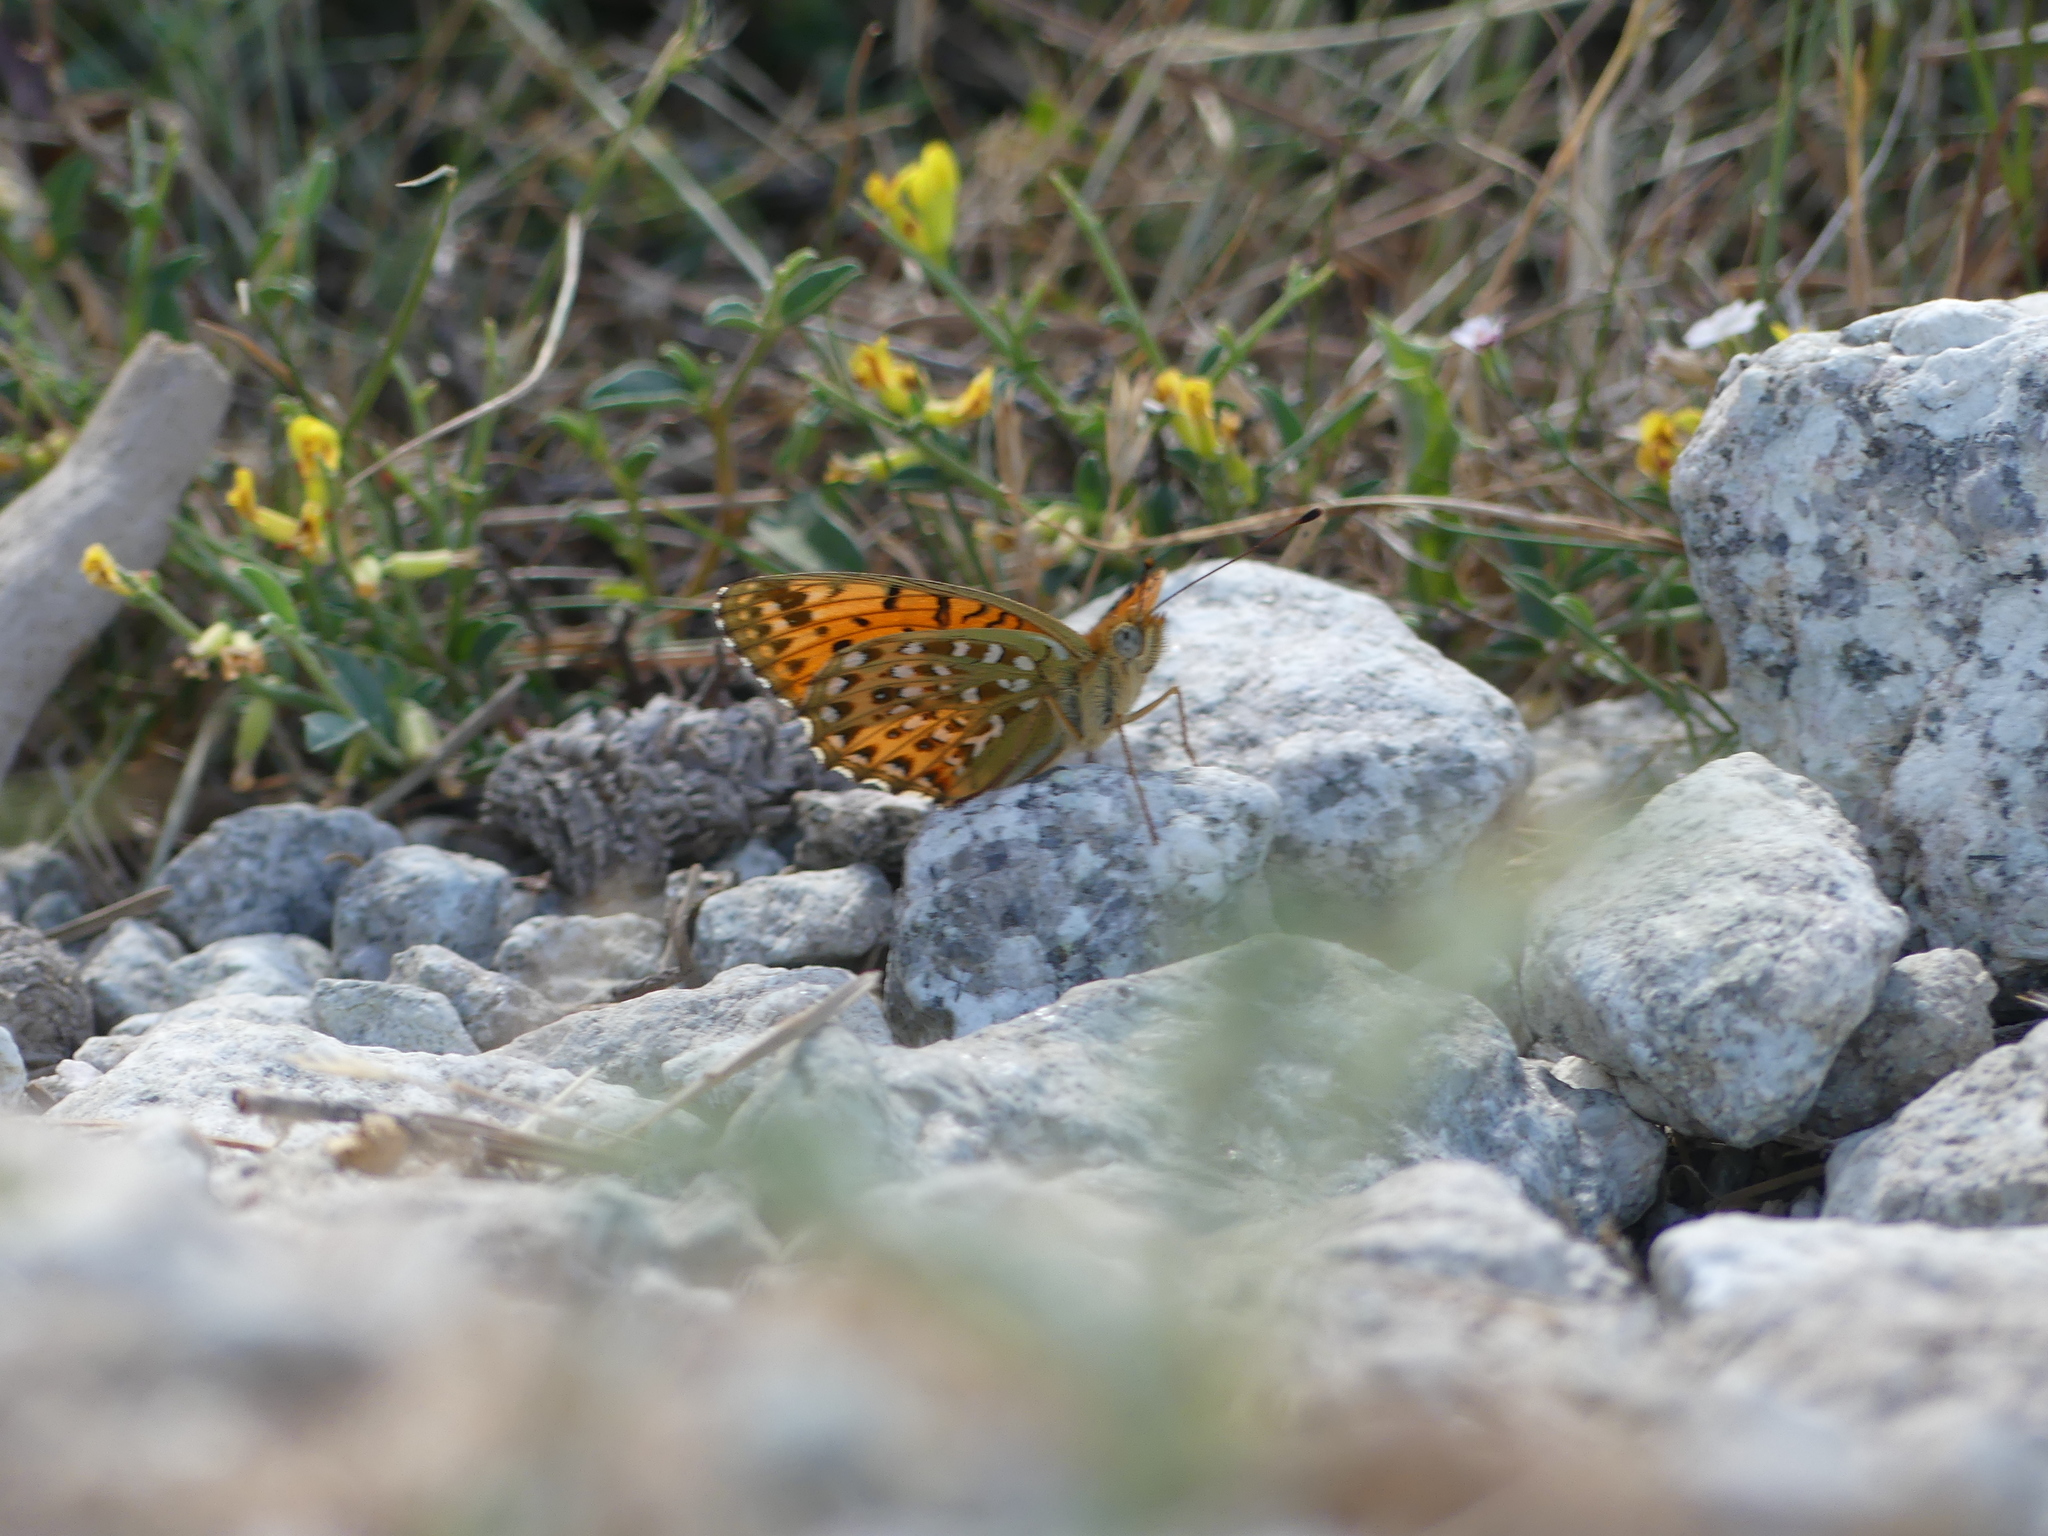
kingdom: Animalia
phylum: Arthropoda
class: Insecta
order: Lepidoptera
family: Nymphalidae
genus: Fabriciana
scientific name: Fabriciana niobe
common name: Niobe fritillary
